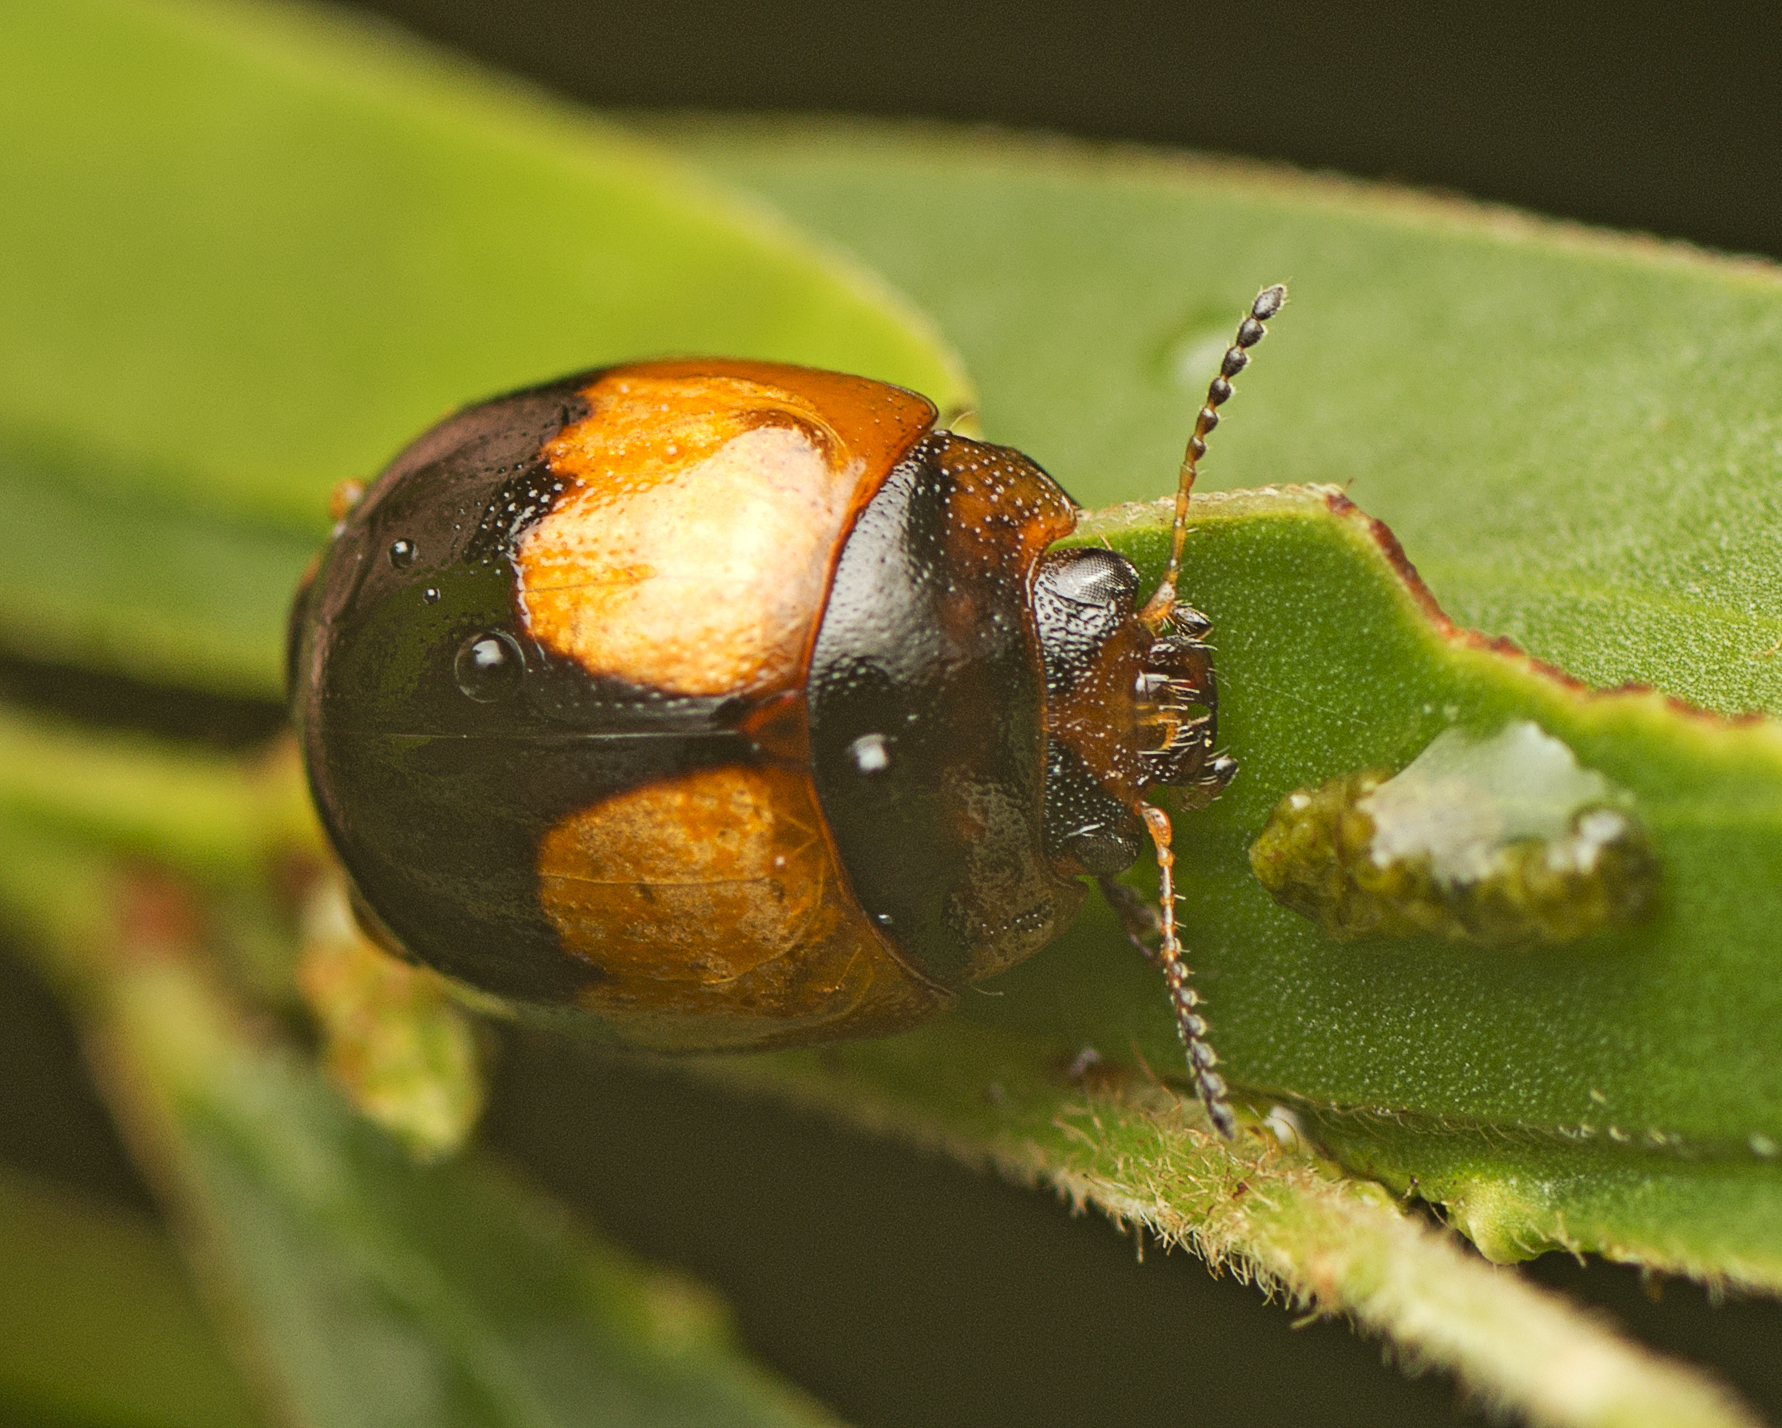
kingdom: Animalia
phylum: Arthropoda
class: Insecta
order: Coleoptera
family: Chrysomelidae
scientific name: Chrysomelidae
